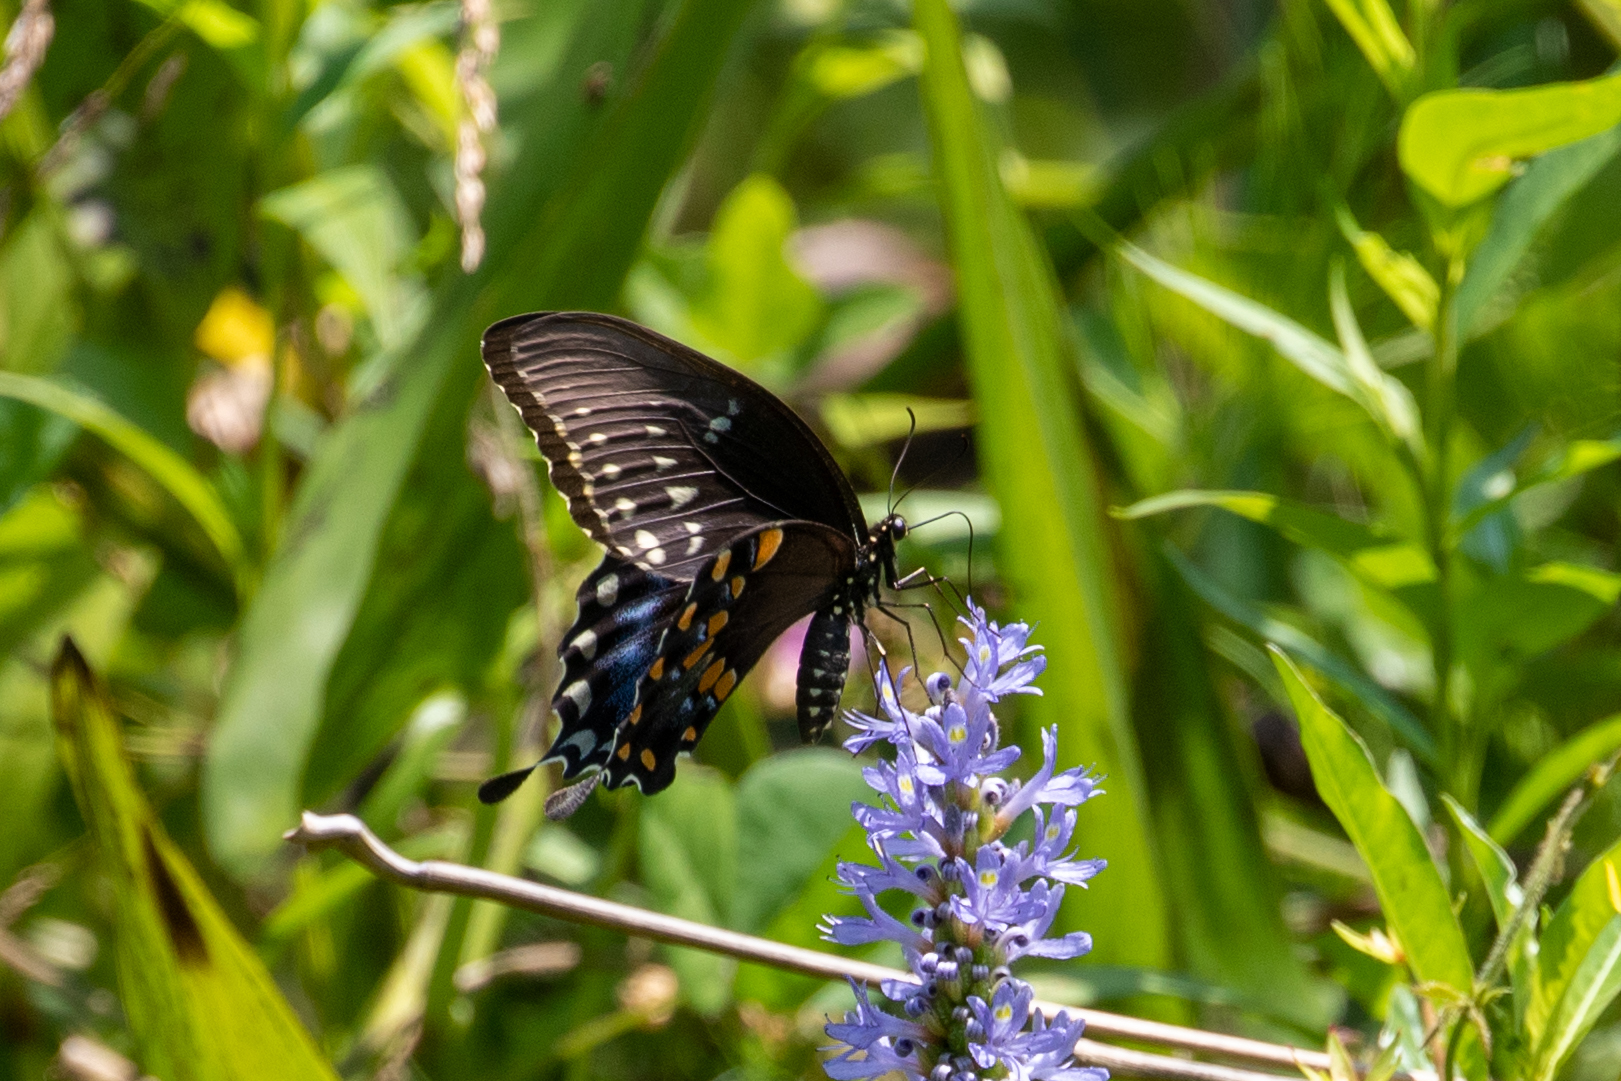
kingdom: Animalia
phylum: Arthropoda
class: Insecta
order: Lepidoptera
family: Papilionidae
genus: Papilio
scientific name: Papilio troilus
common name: Spicebush swallowtail
